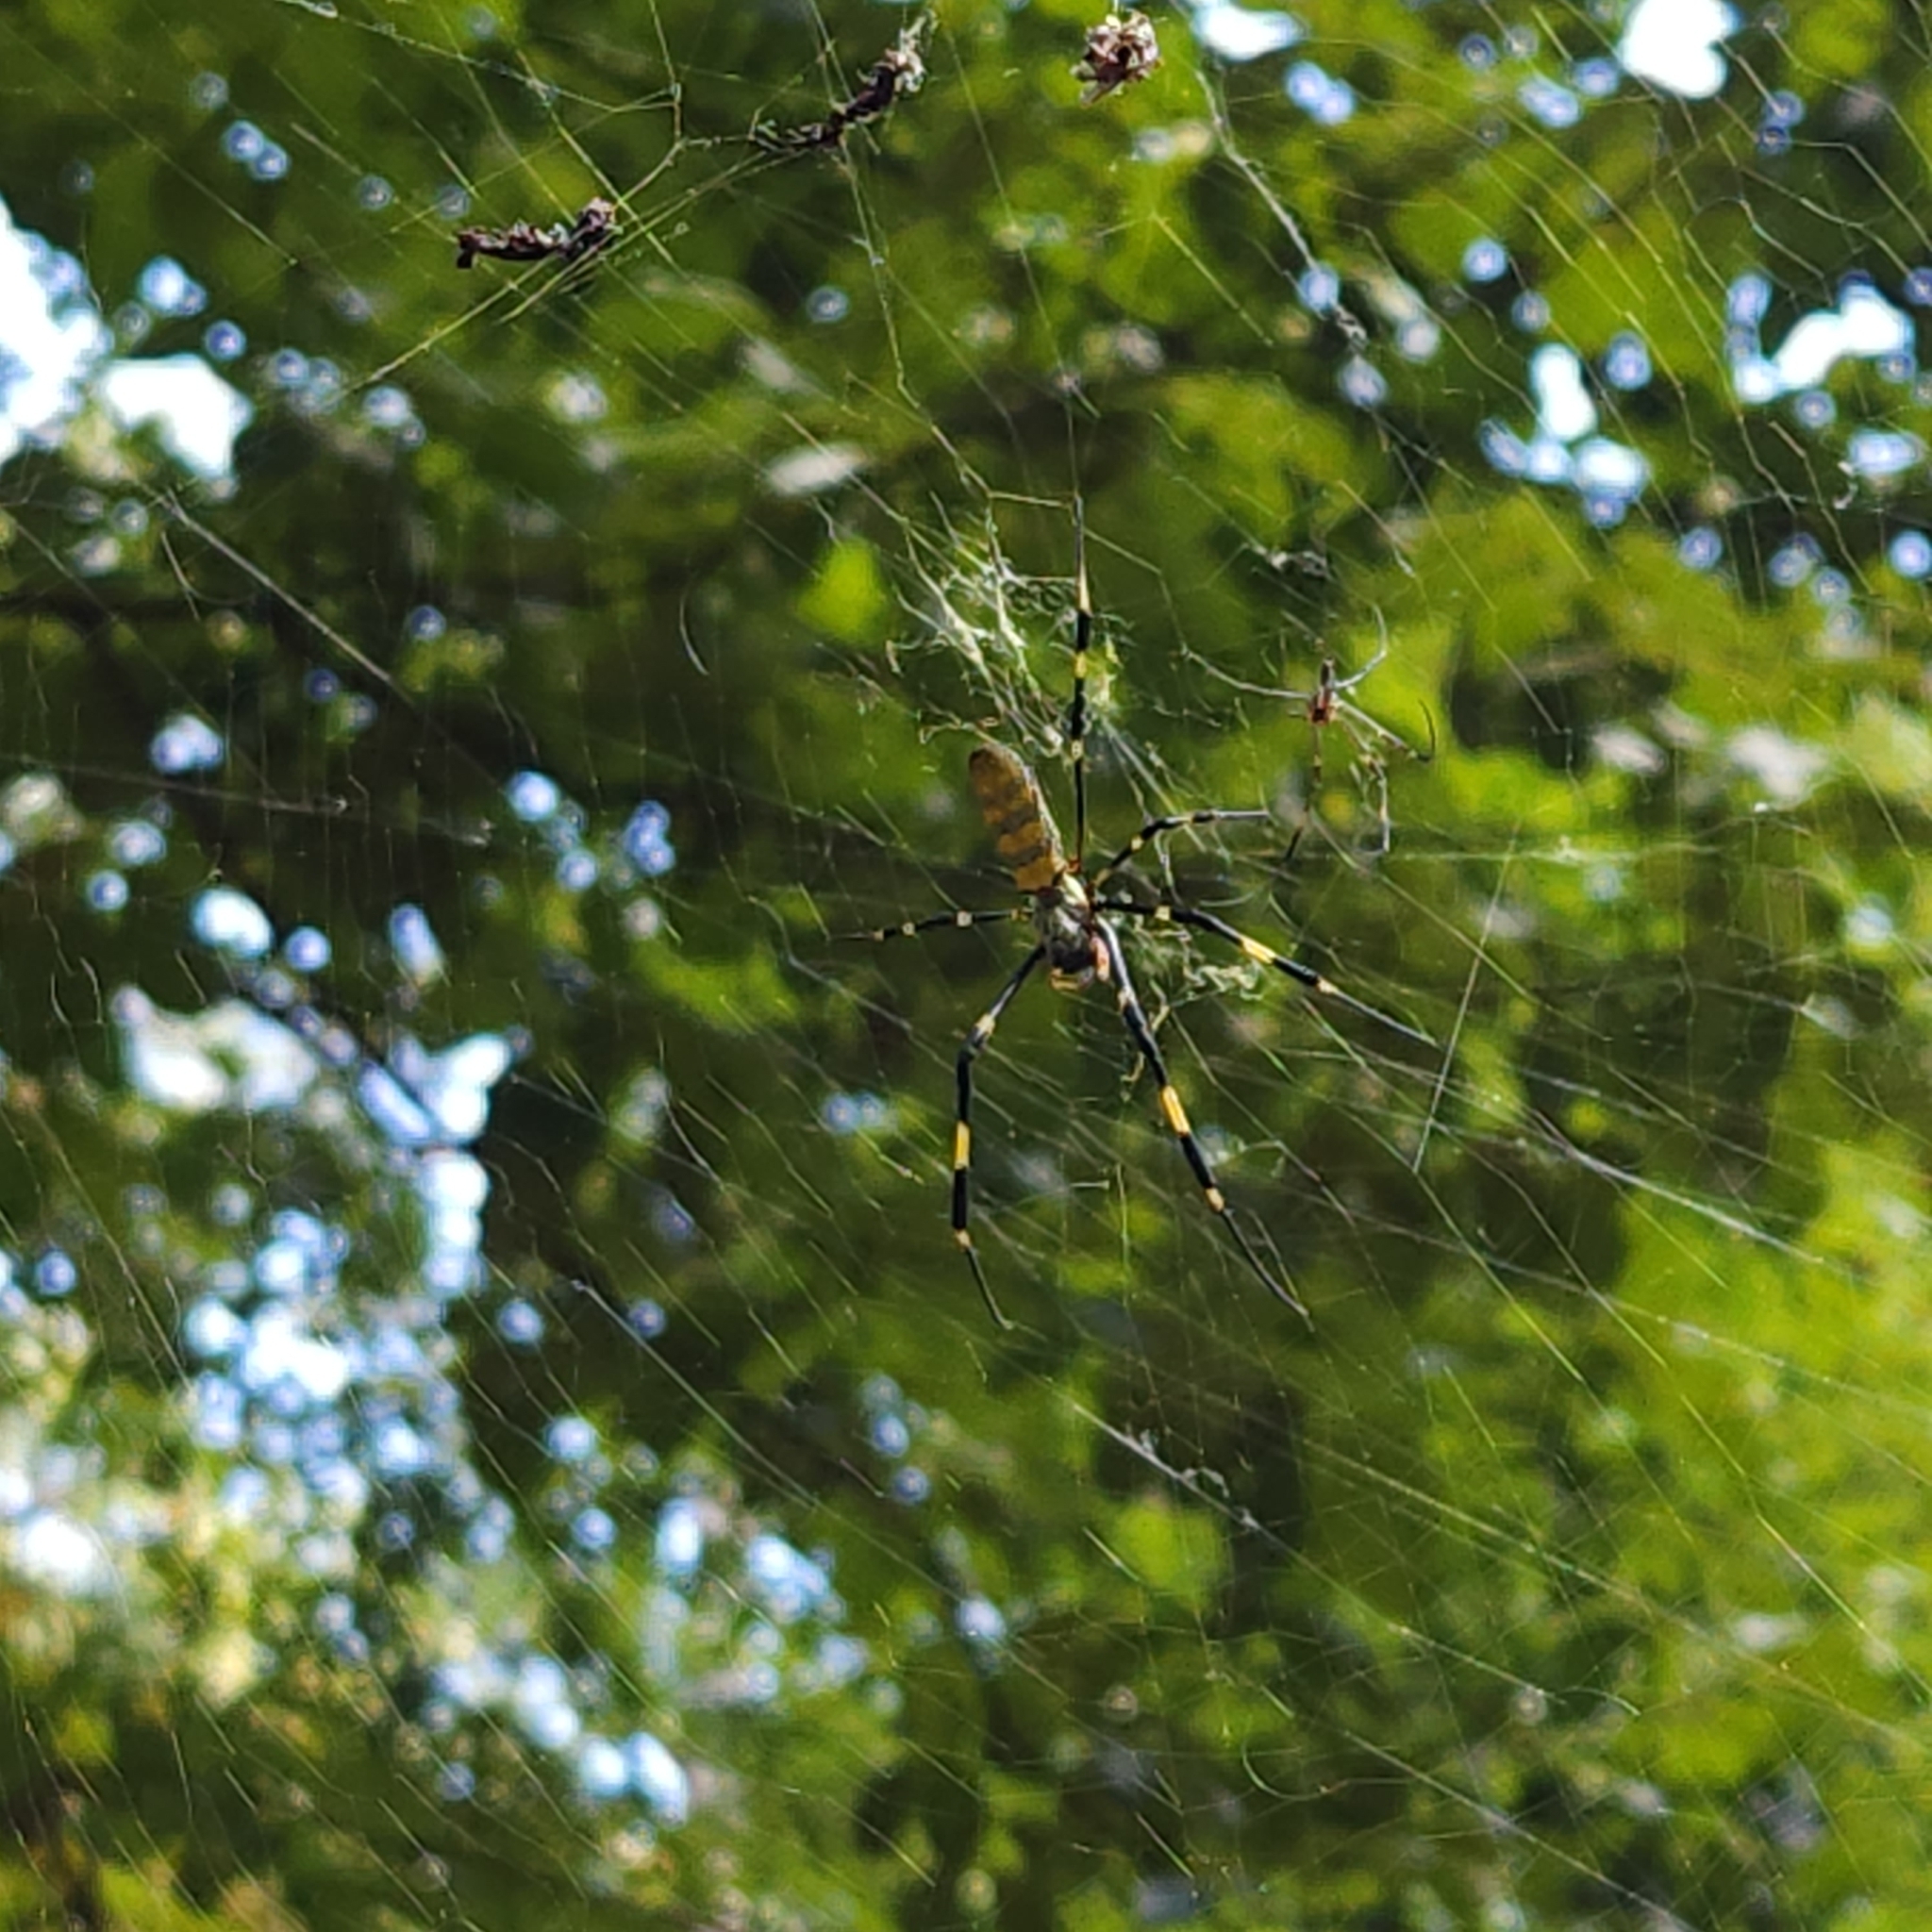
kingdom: Animalia
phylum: Arthropoda
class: Arachnida
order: Araneae
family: Araneidae
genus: Trichonephila
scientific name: Trichonephila clavata
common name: Jorō spider
